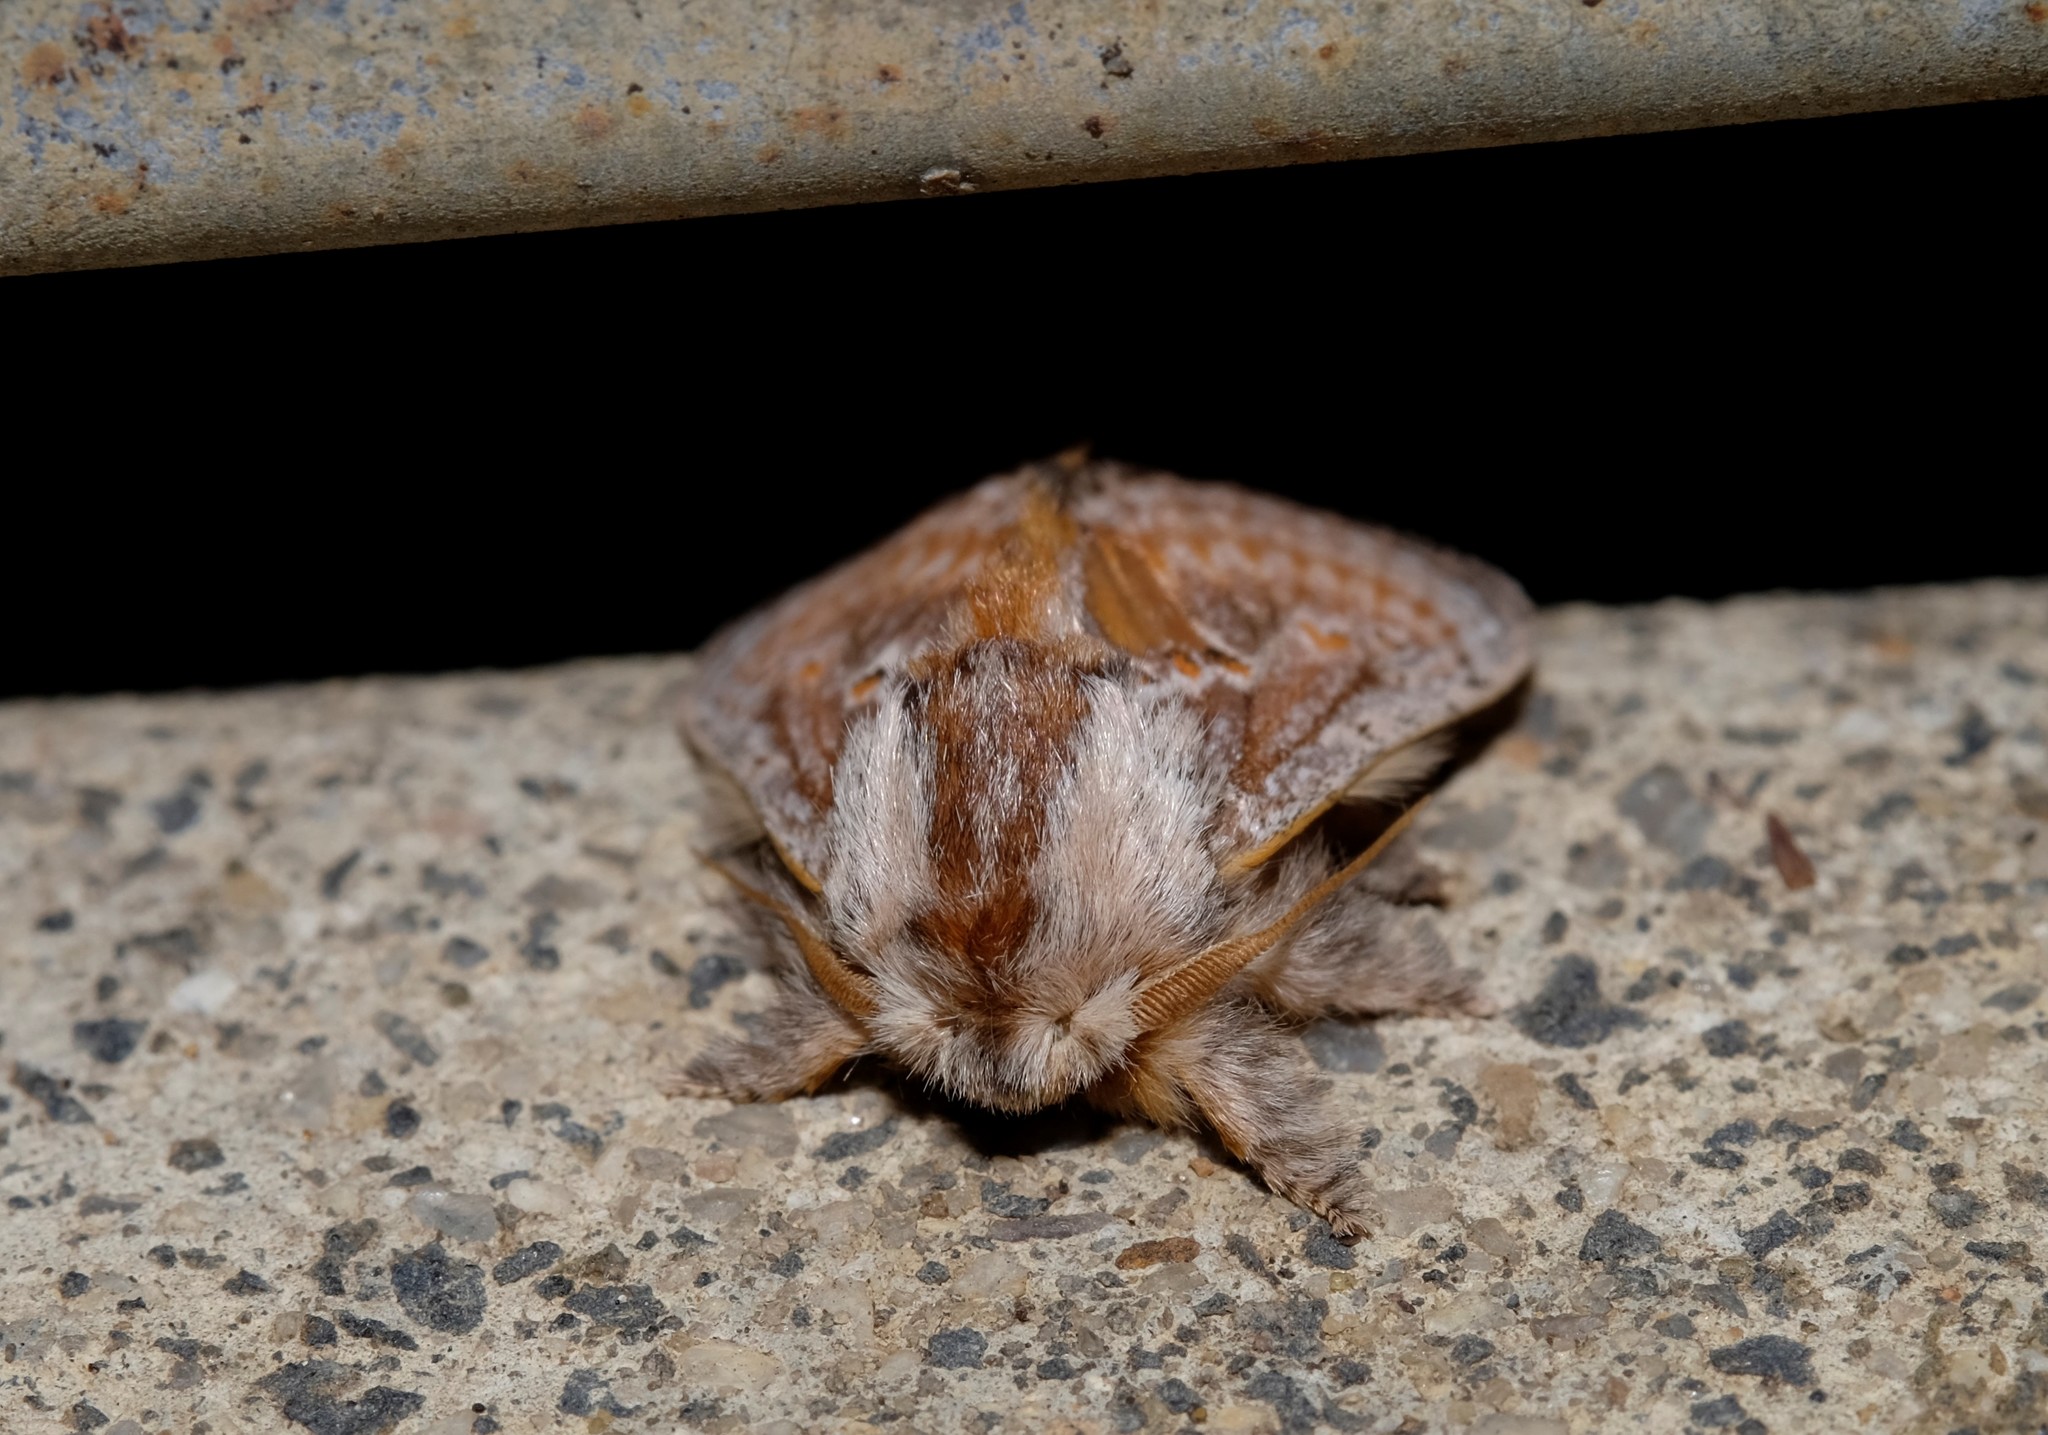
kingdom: Animalia
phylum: Arthropoda
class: Insecta
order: Lepidoptera
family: Limacodidae
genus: Pseudanapaea
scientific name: Pseudanapaea
